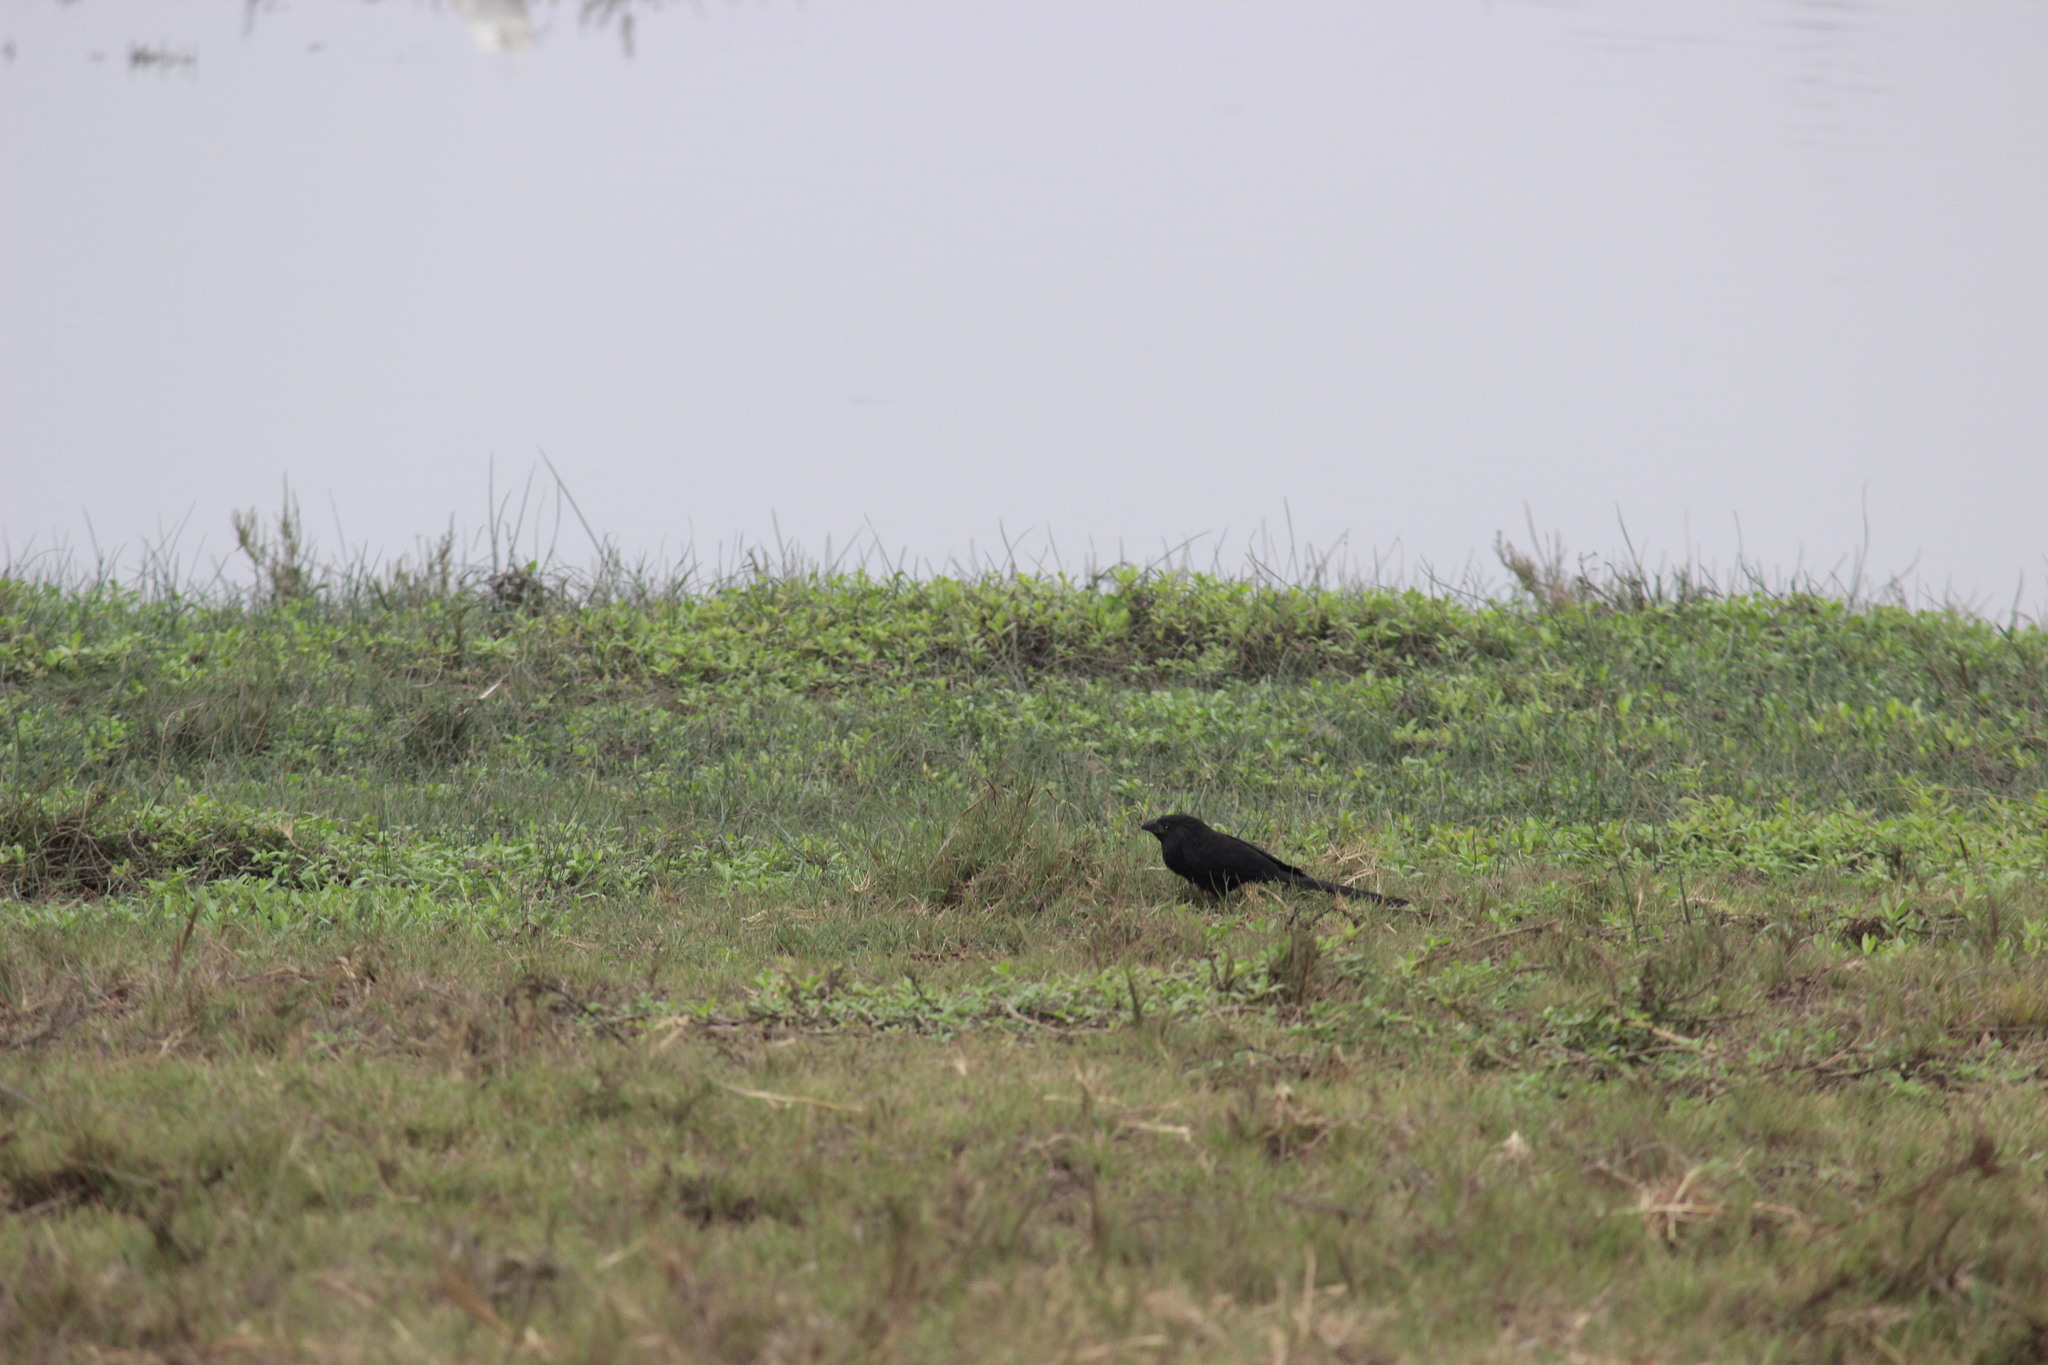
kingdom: Animalia
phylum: Chordata
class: Aves
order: Cuculiformes
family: Cuculidae
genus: Crotophaga
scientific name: Crotophaga sulcirostris
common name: Groove-billed ani
